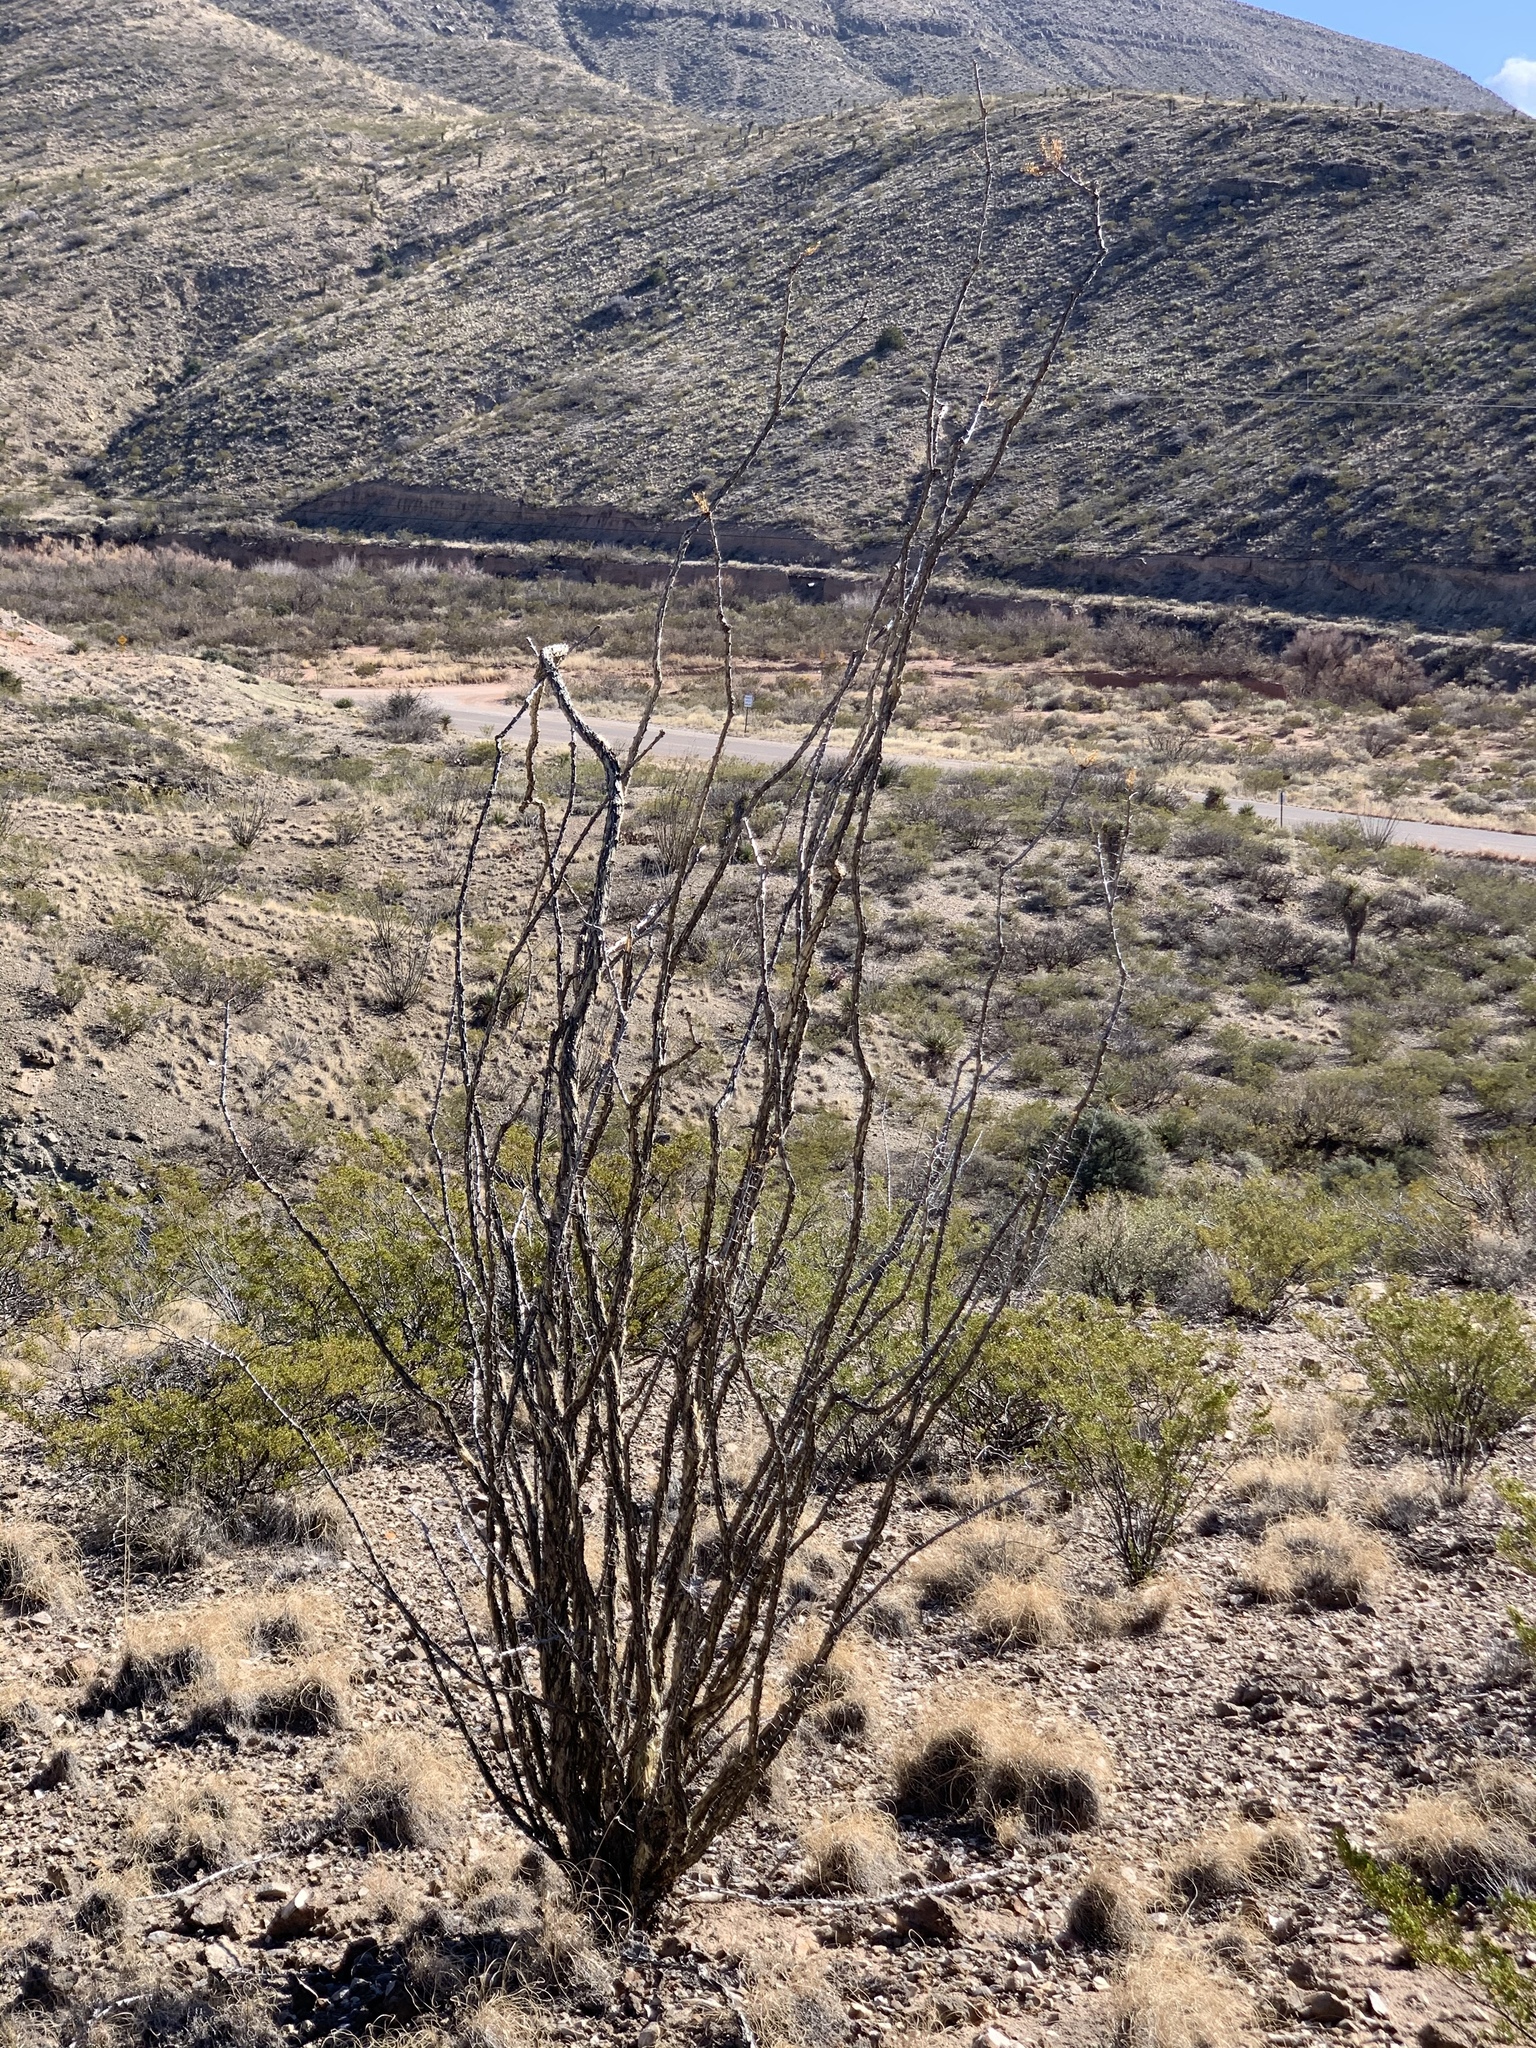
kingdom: Plantae
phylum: Tracheophyta
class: Magnoliopsida
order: Ericales
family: Fouquieriaceae
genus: Fouquieria
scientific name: Fouquieria splendens
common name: Vine-cactus
